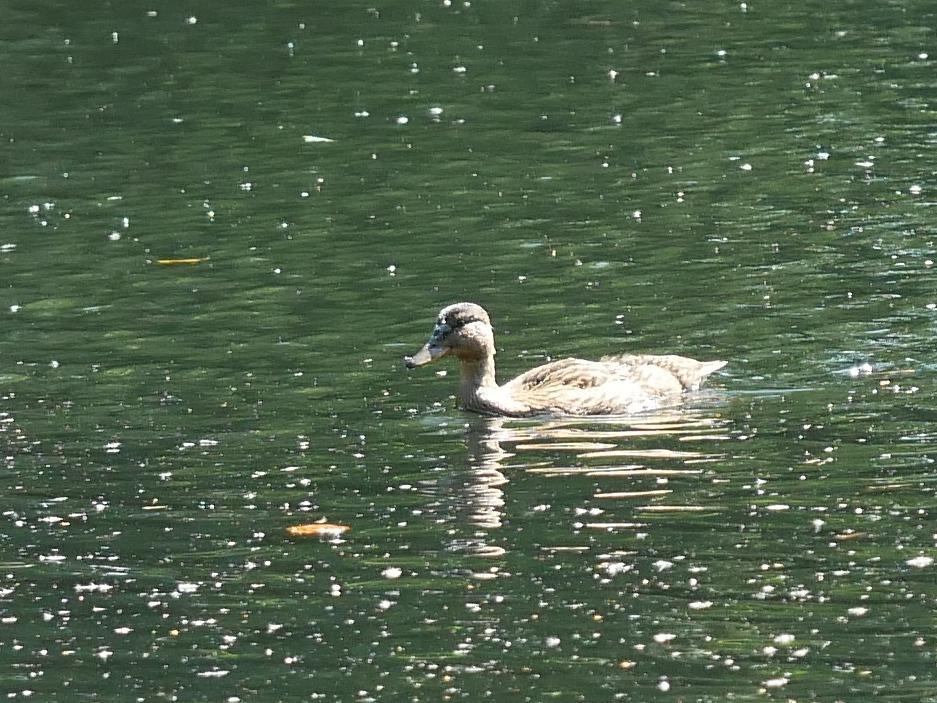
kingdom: Animalia
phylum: Chordata
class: Aves
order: Anseriformes
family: Anatidae
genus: Anas
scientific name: Anas platyrhynchos
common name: Mallard
